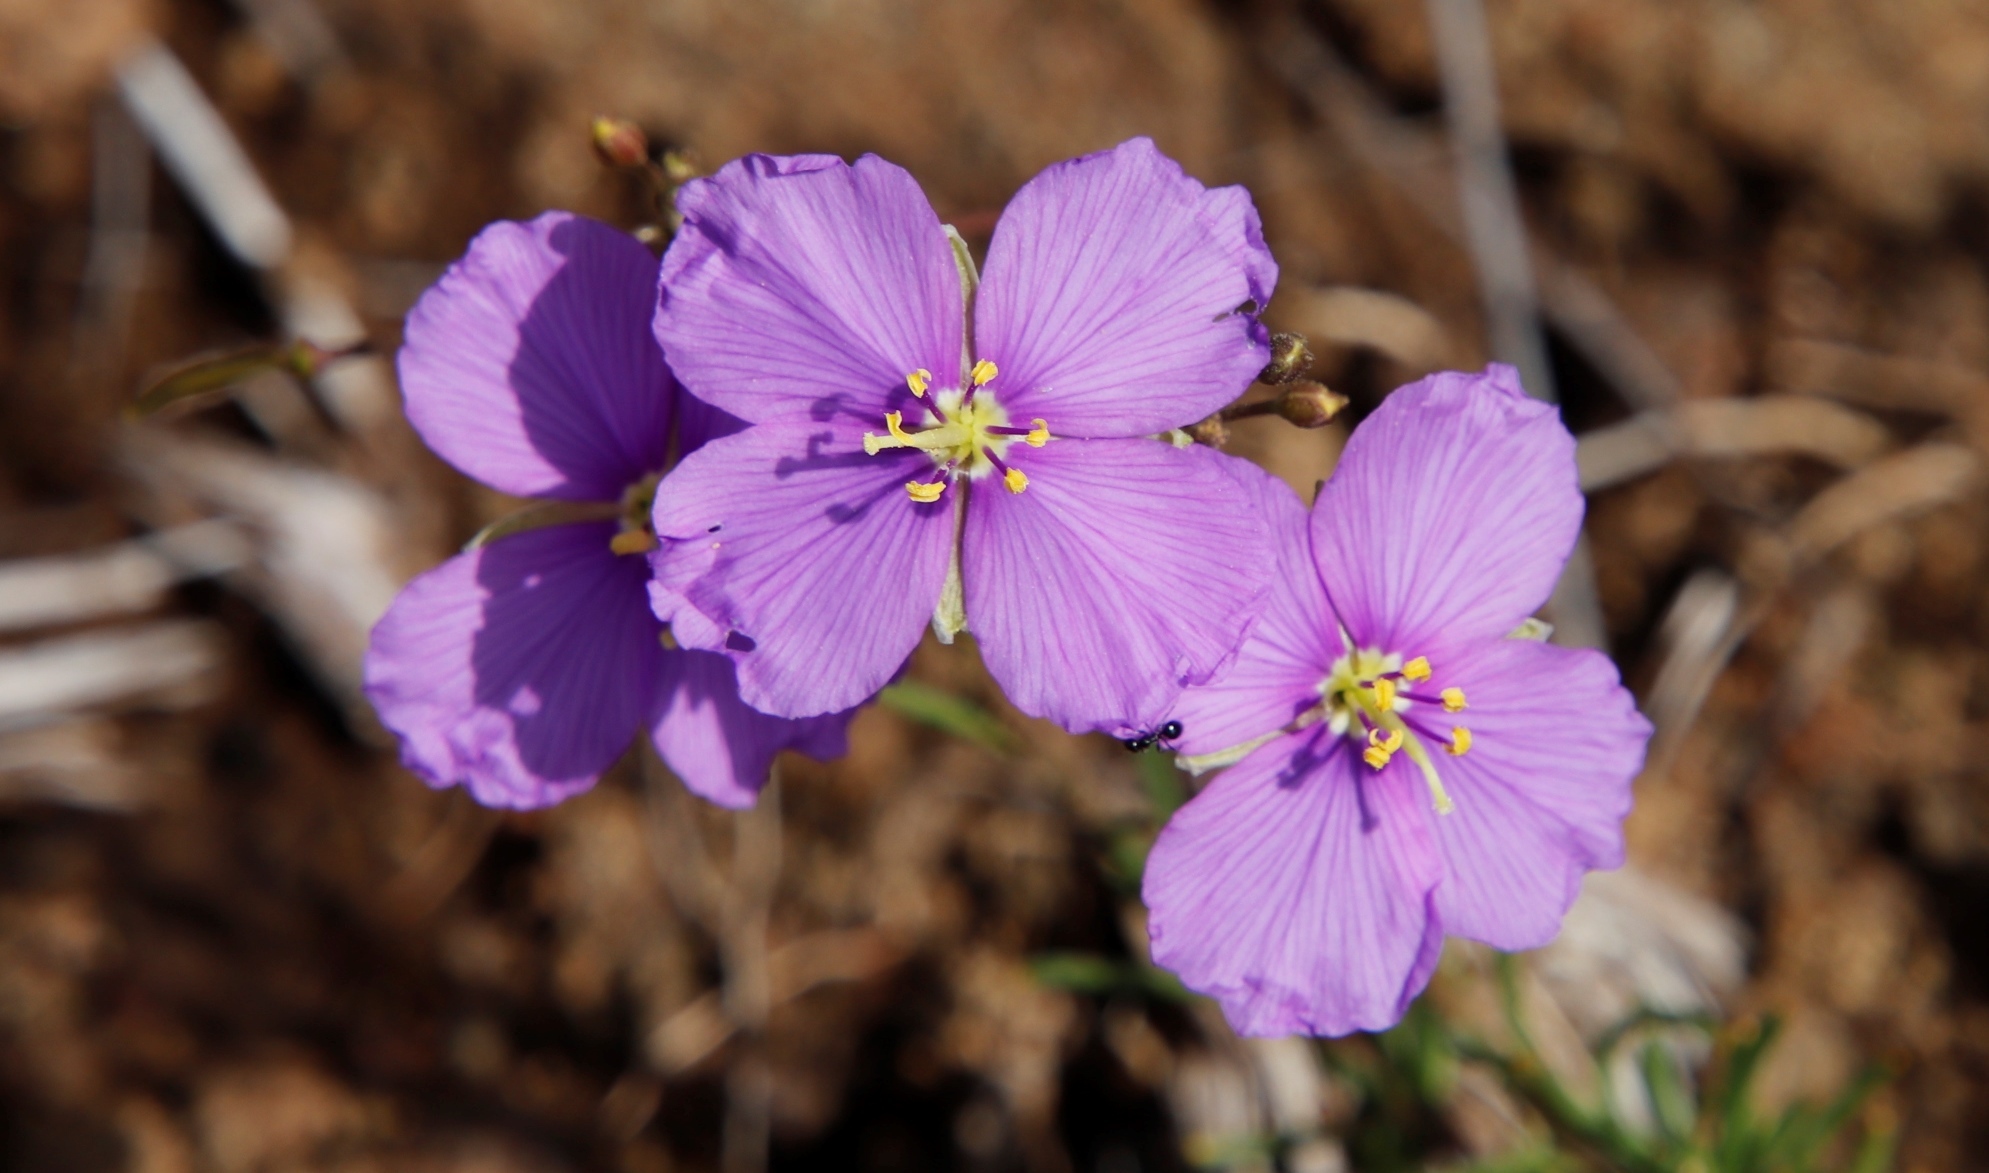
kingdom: Plantae
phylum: Tracheophyta
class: Magnoliopsida
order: Brassicales
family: Brassicaceae
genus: Heliophila
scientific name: Heliophila suavissima
